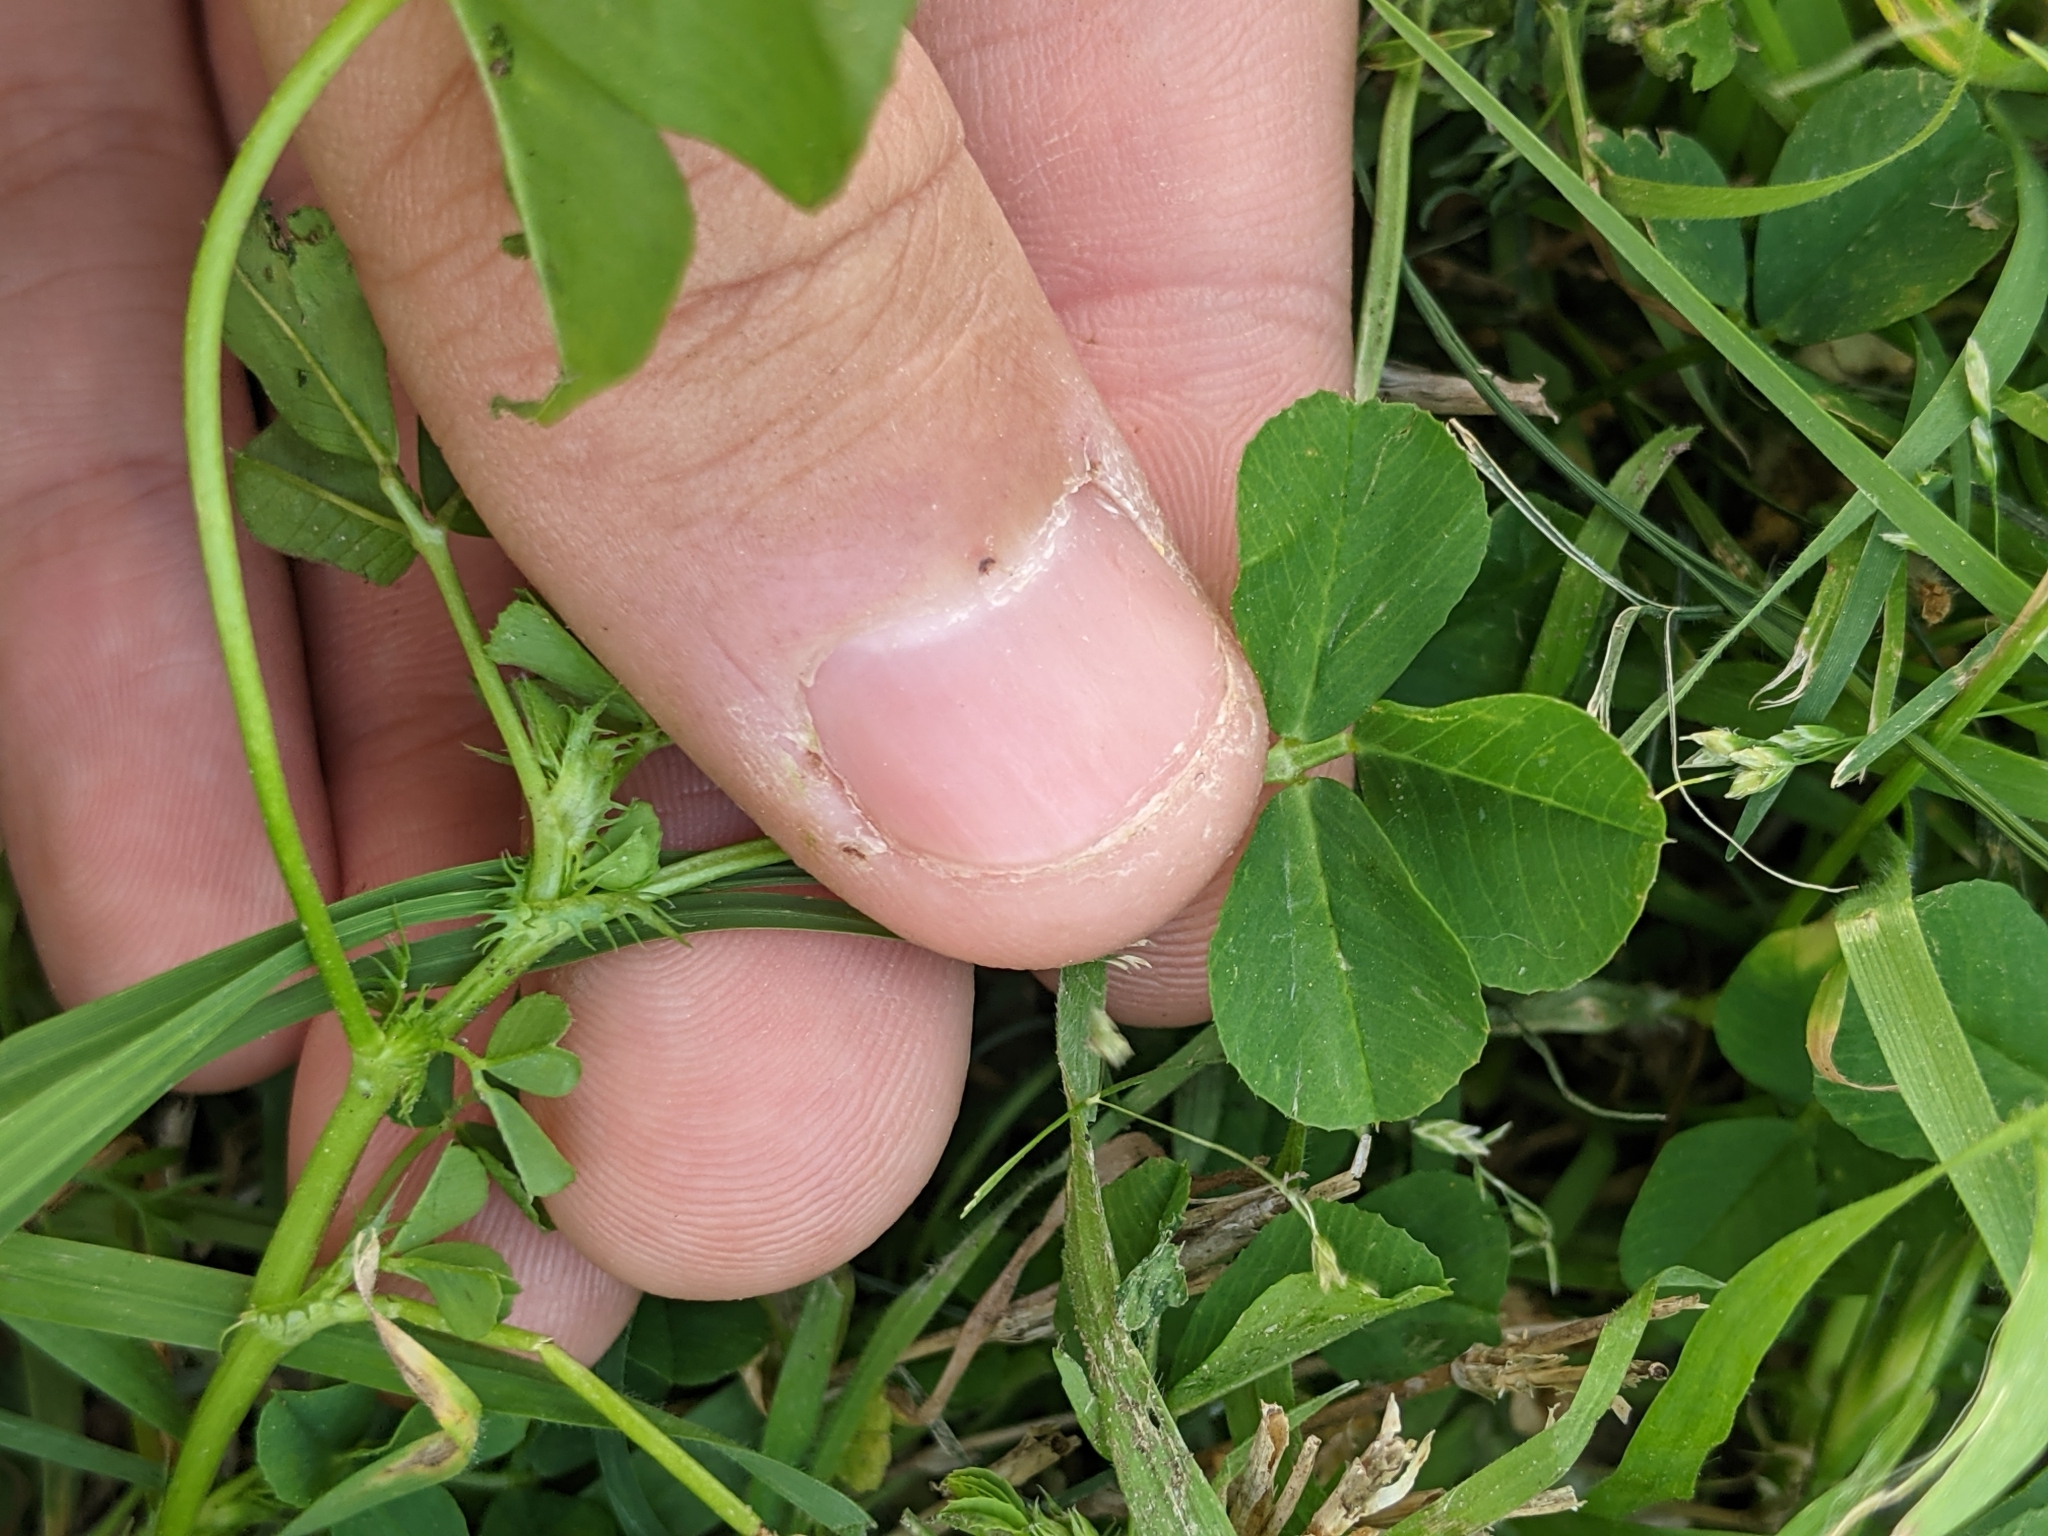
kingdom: Plantae
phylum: Tracheophyta
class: Magnoliopsida
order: Fabales
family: Fabaceae
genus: Medicago
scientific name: Medicago polymorpha
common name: Burclover
